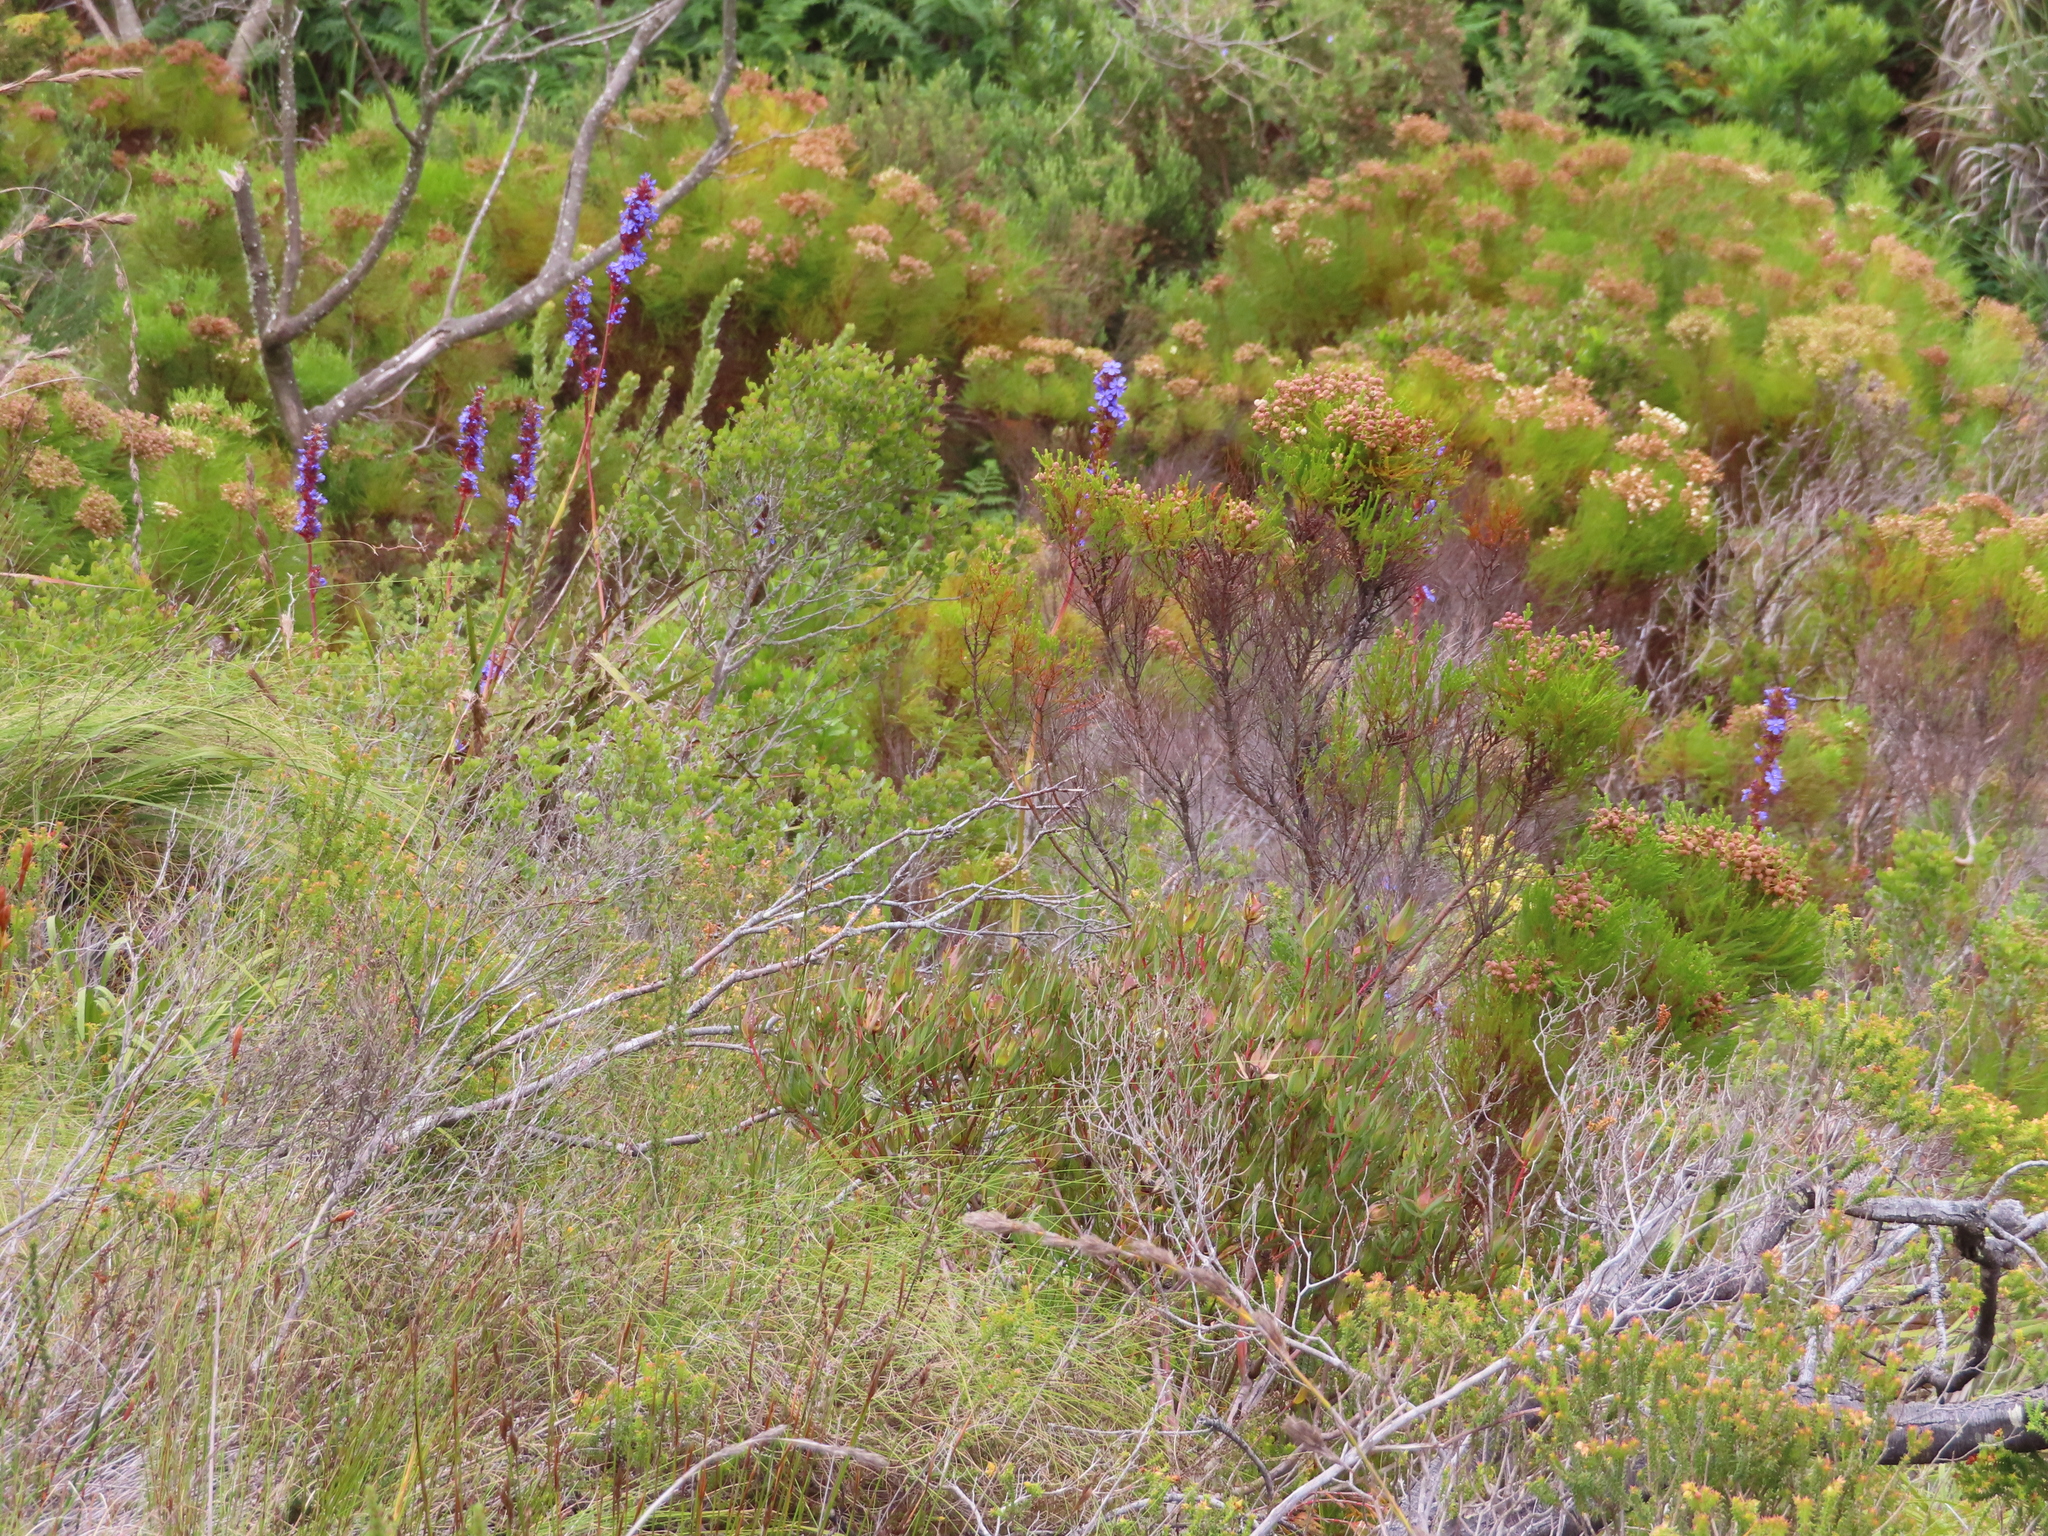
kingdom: Plantae
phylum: Tracheophyta
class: Magnoliopsida
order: Bruniales
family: Bruniaceae
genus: Berzelia
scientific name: Berzelia lanuginosa
